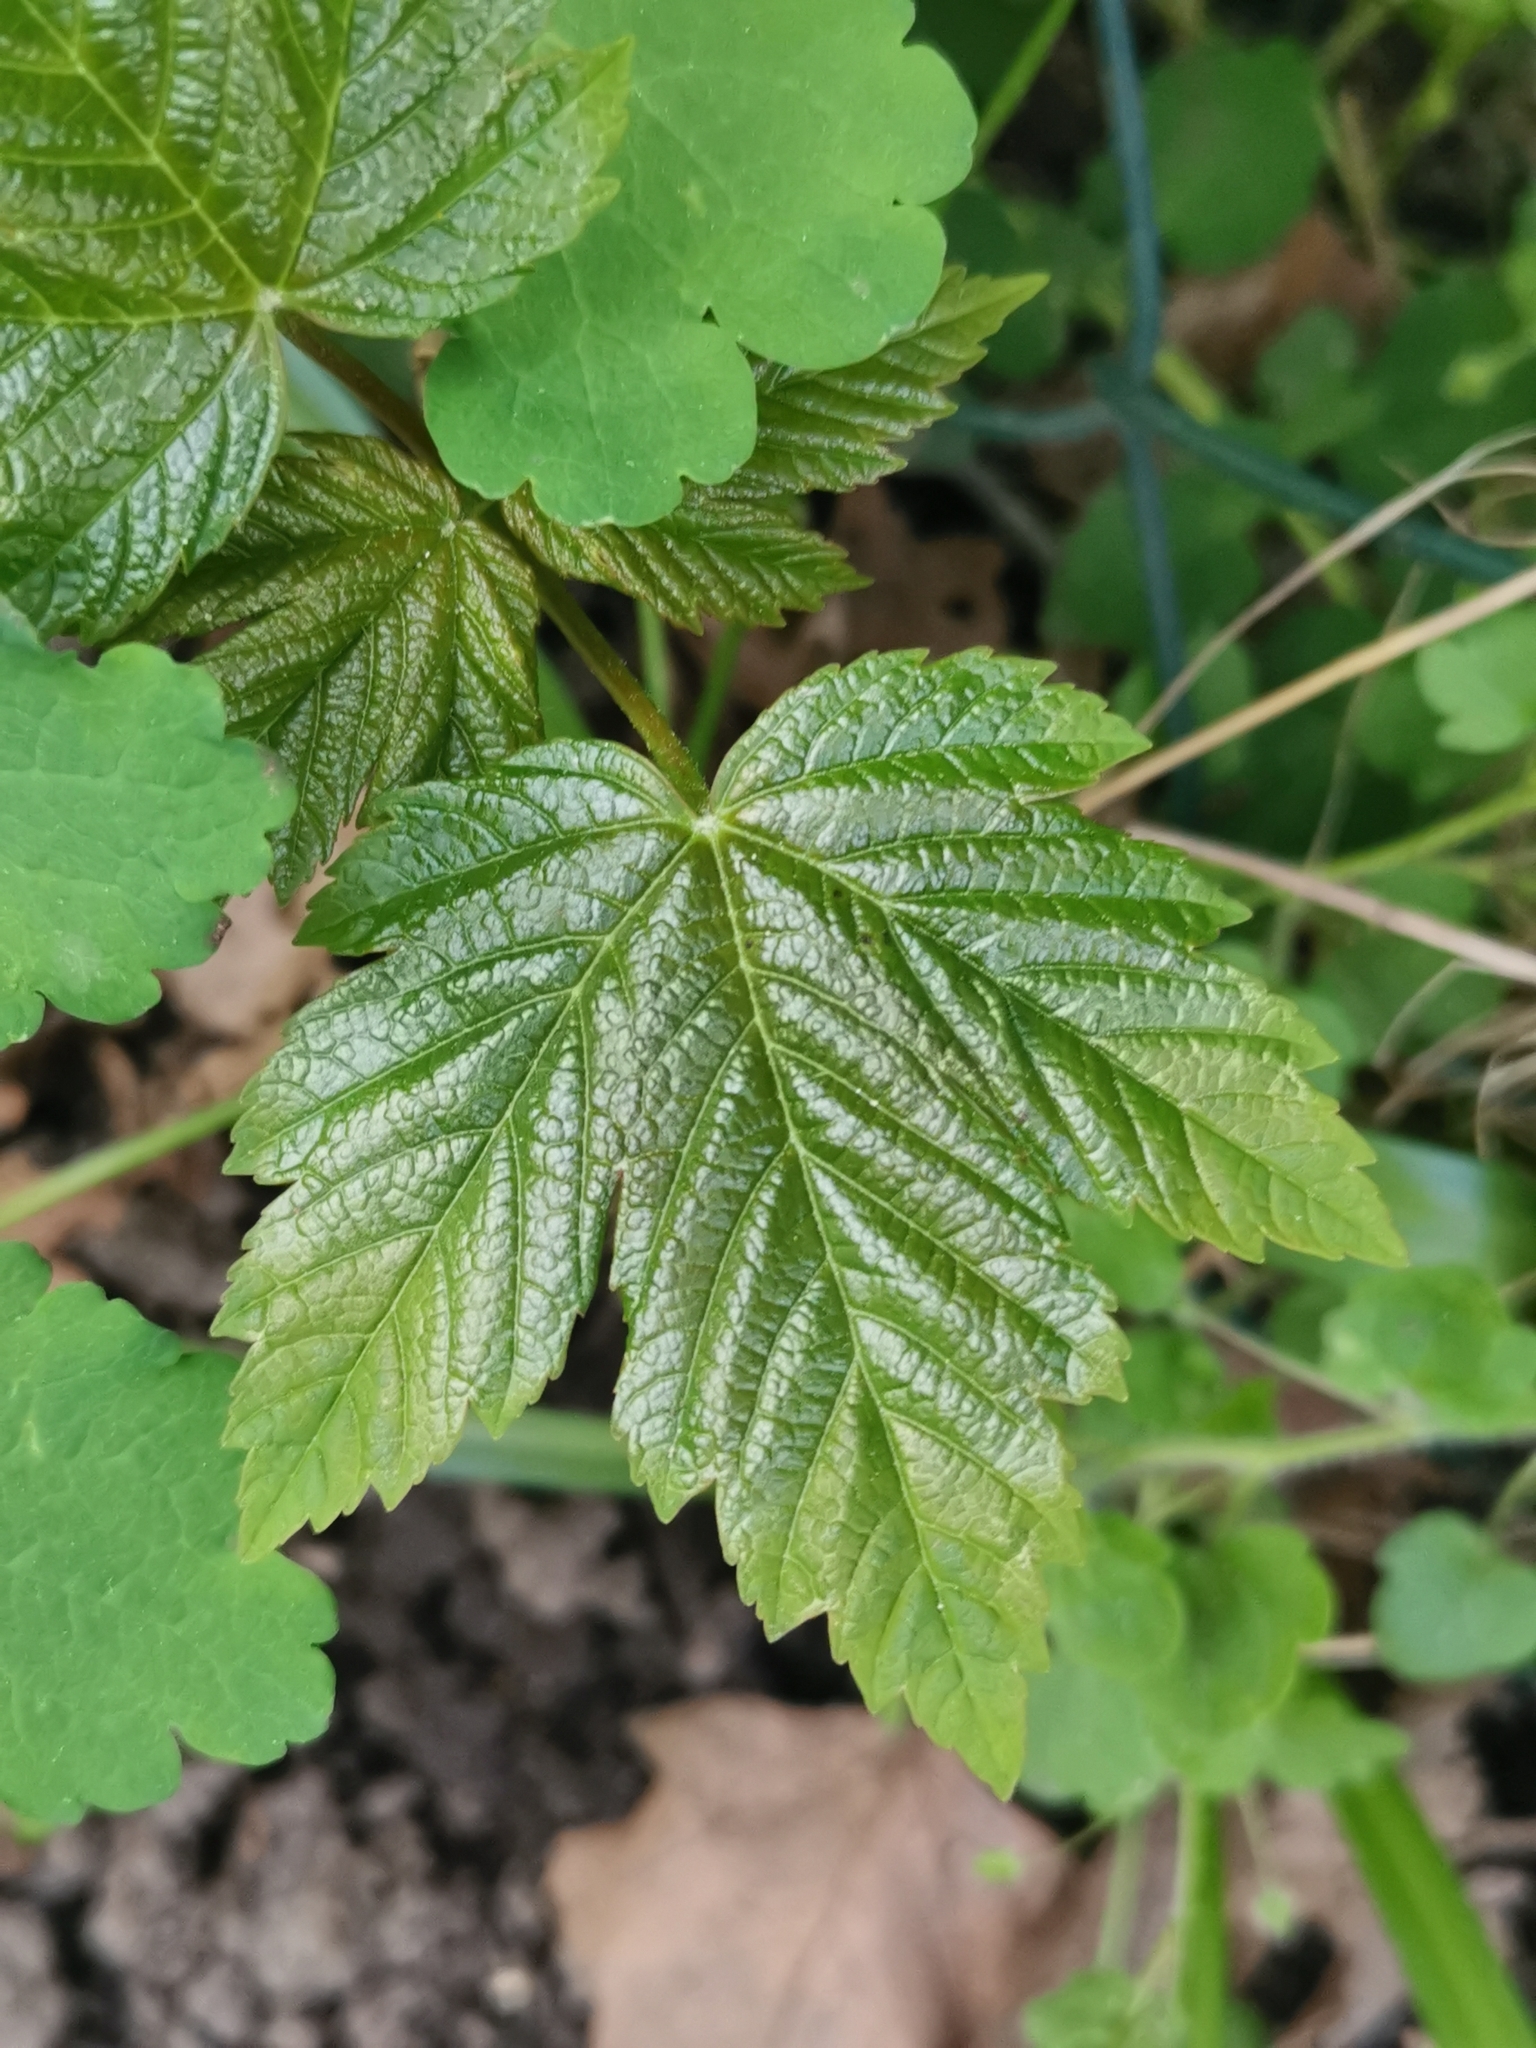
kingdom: Plantae
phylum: Tracheophyta
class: Magnoliopsida
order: Sapindales
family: Sapindaceae
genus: Acer
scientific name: Acer pseudoplatanus
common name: Sycamore
